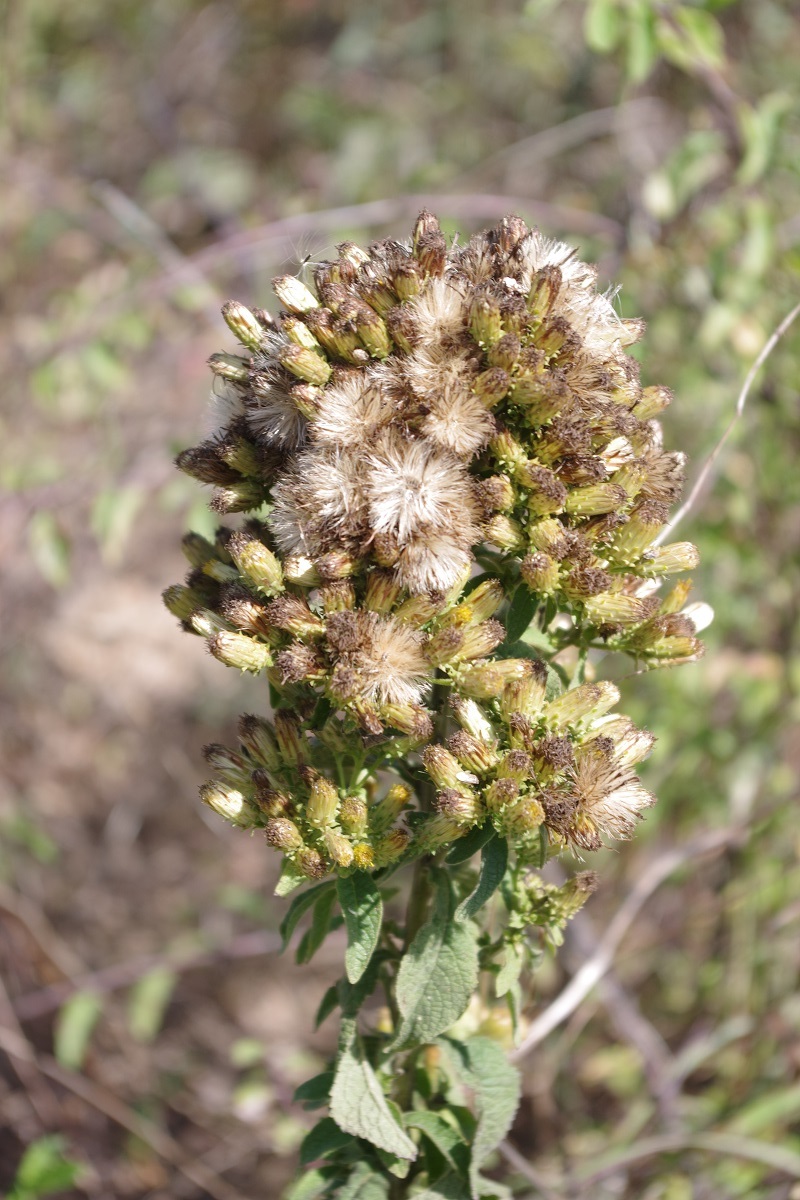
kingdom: Plantae
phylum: Tracheophyta
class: Magnoliopsida
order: Asterales
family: Asteraceae
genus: Pentanema
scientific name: Pentanema squarrosum
